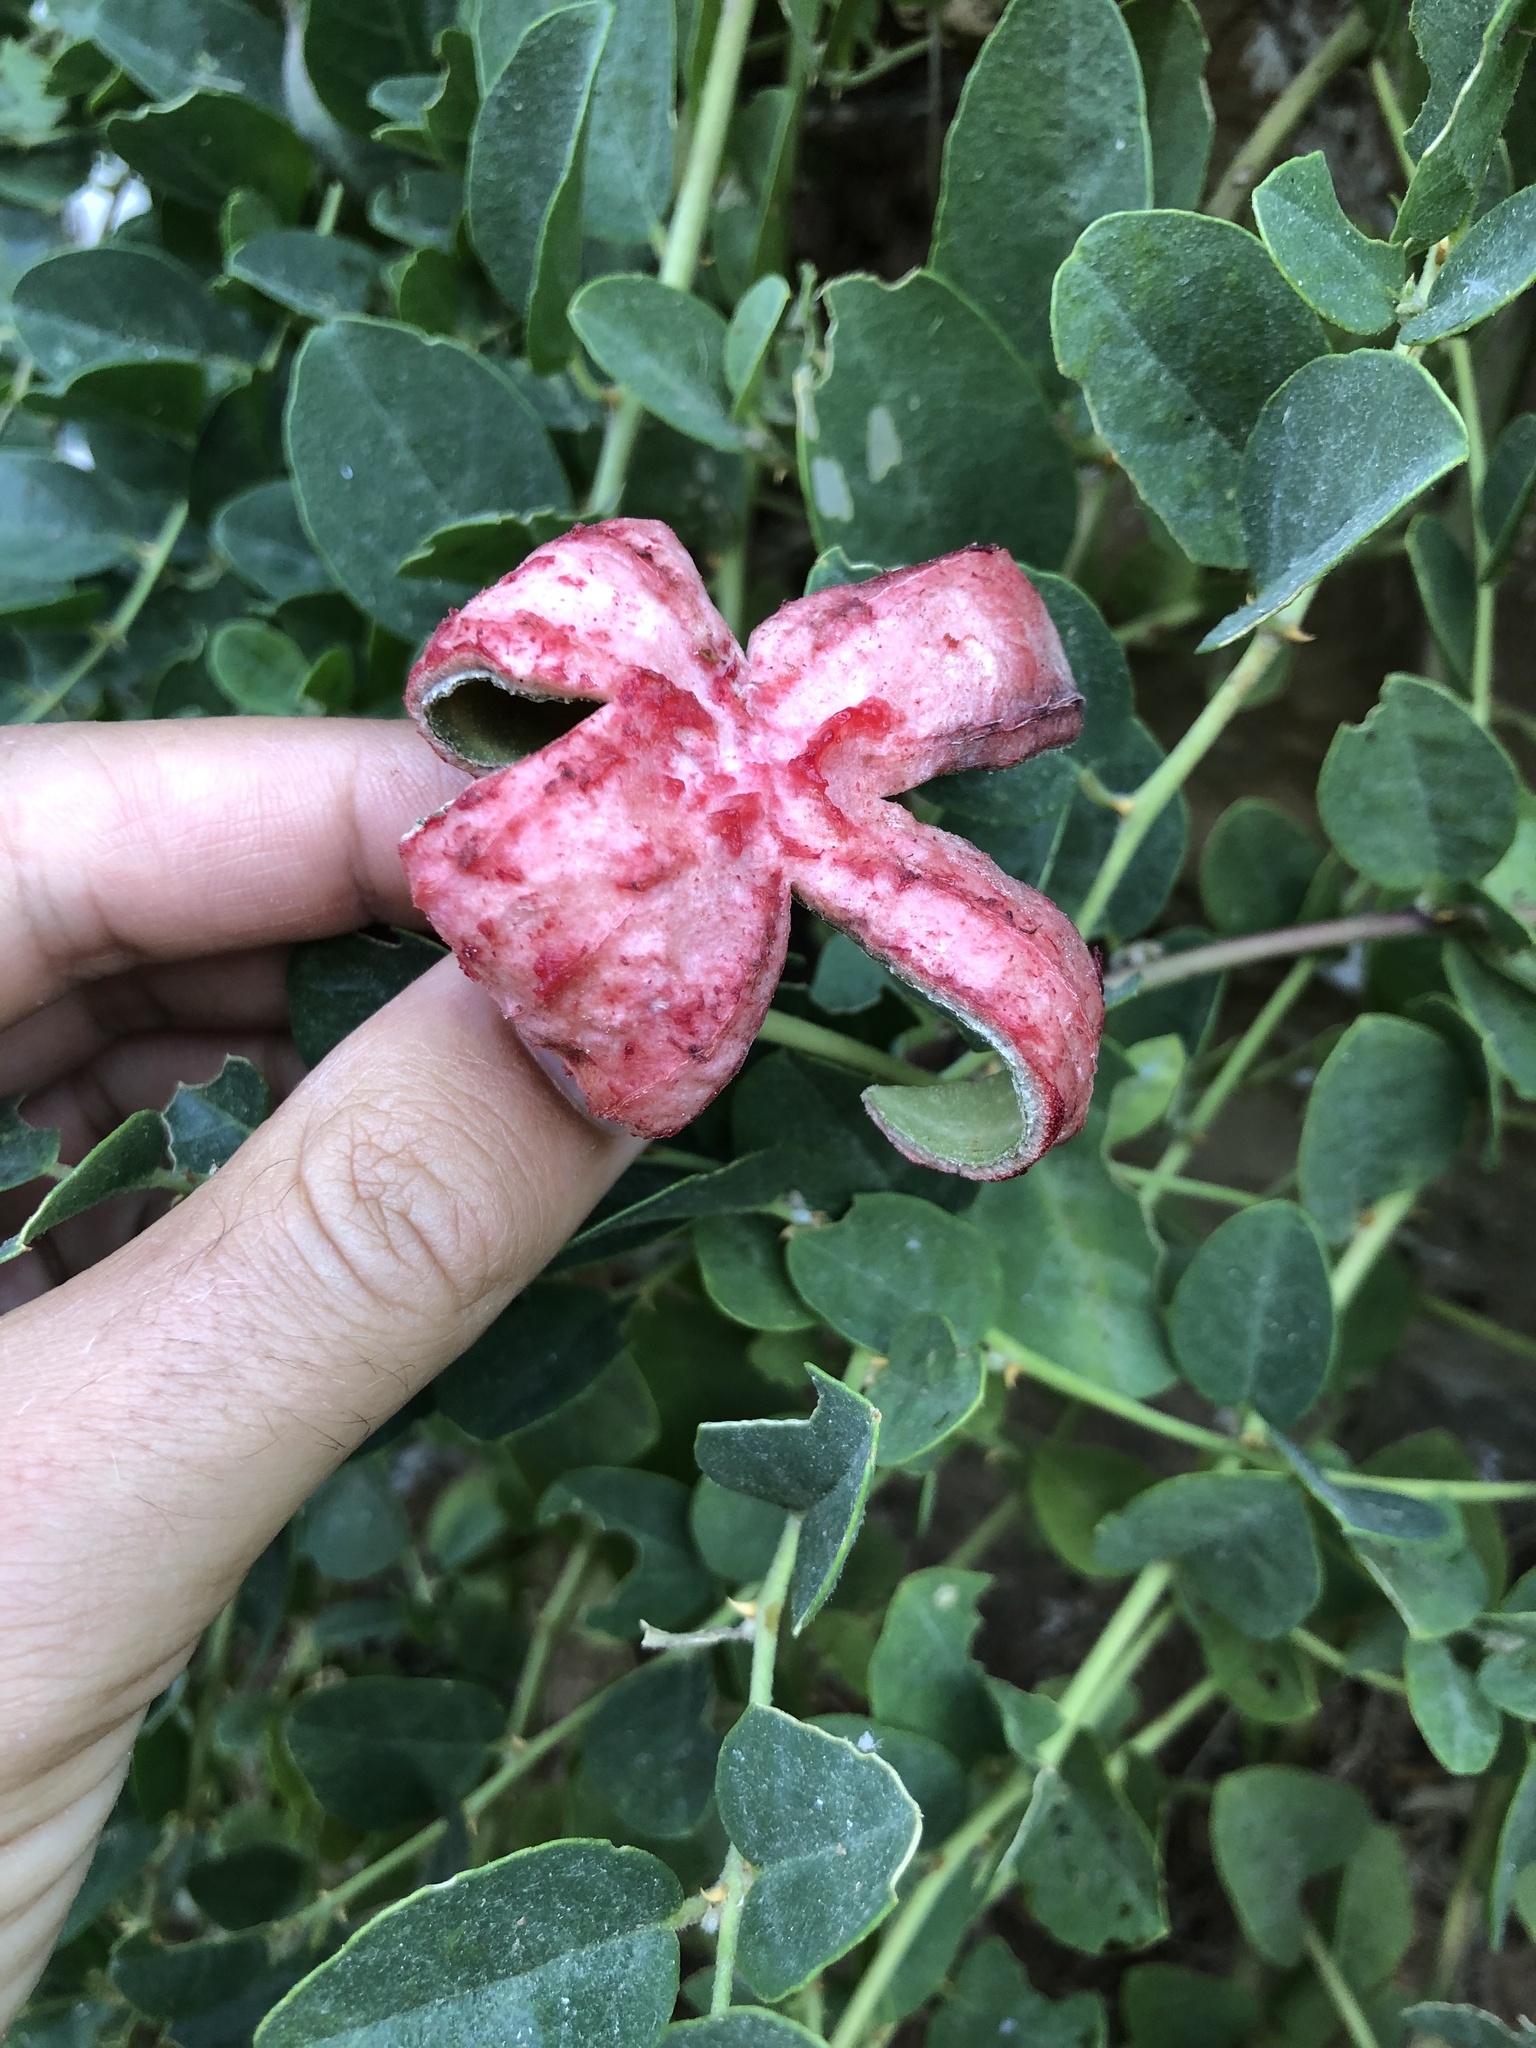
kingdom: Plantae
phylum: Tracheophyta
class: Magnoliopsida
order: Brassicales
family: Capparaceae
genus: Capparis
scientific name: Capparis spinosa
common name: Caper
